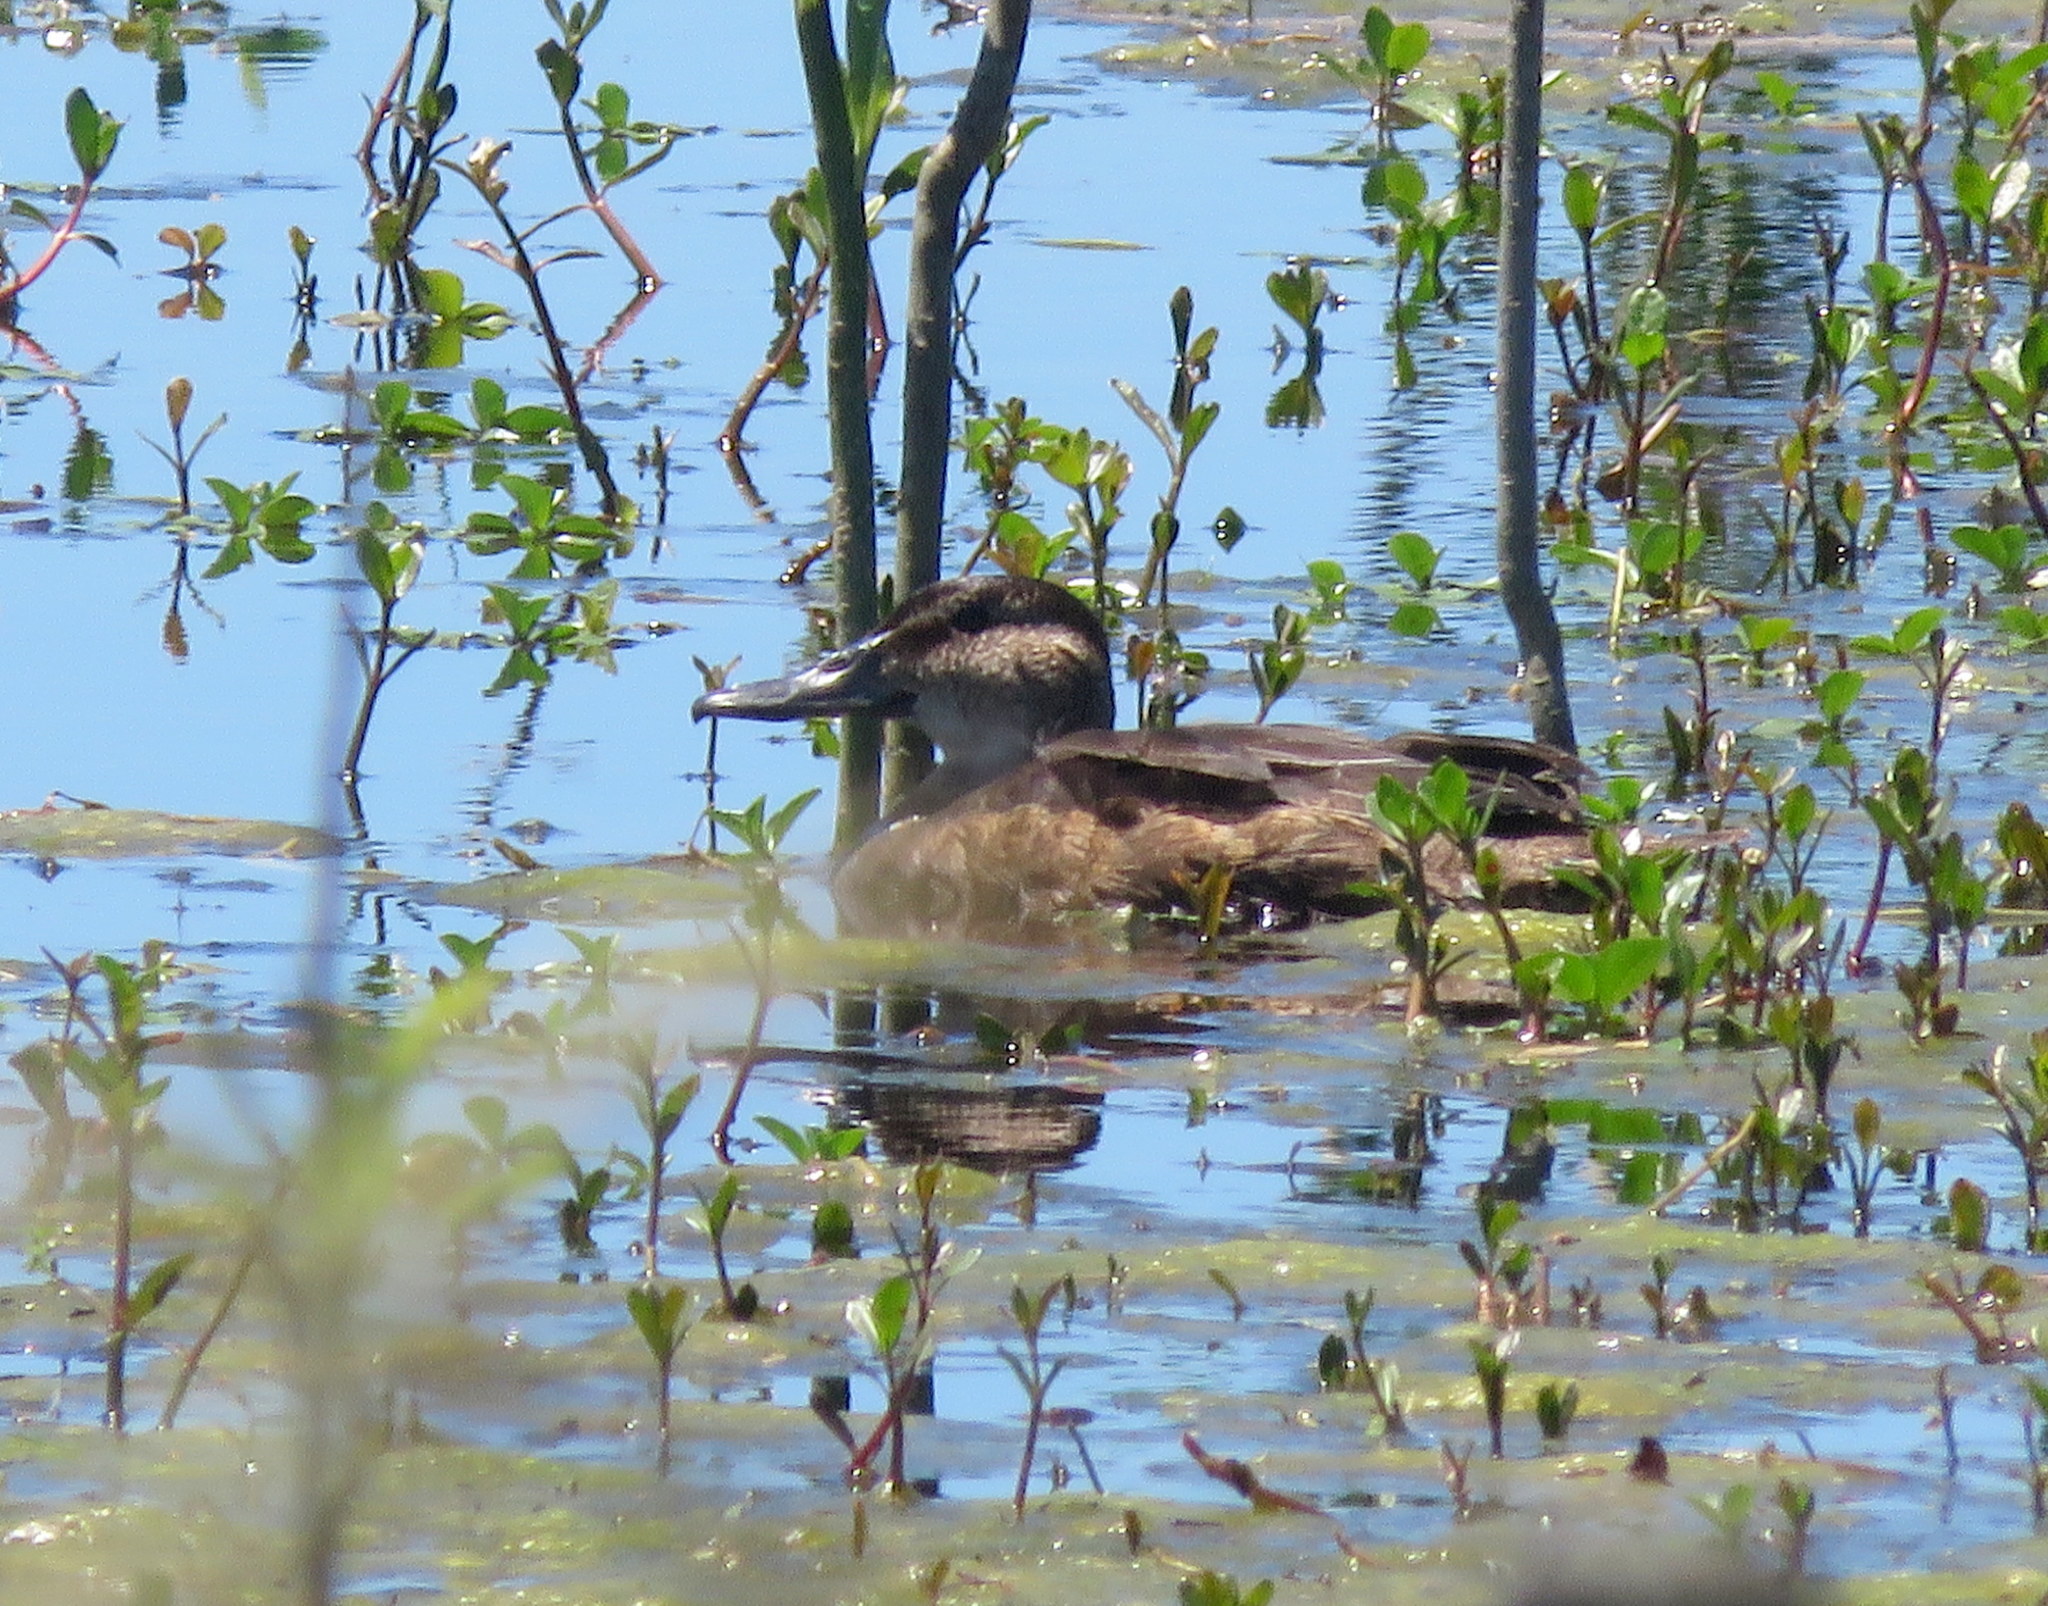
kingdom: Animalia
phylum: Chordata
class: Aves
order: Anseriformes
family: Anatidae
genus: Heteronetta
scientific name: Heteronetta atricapilla
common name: Black-headed duck
